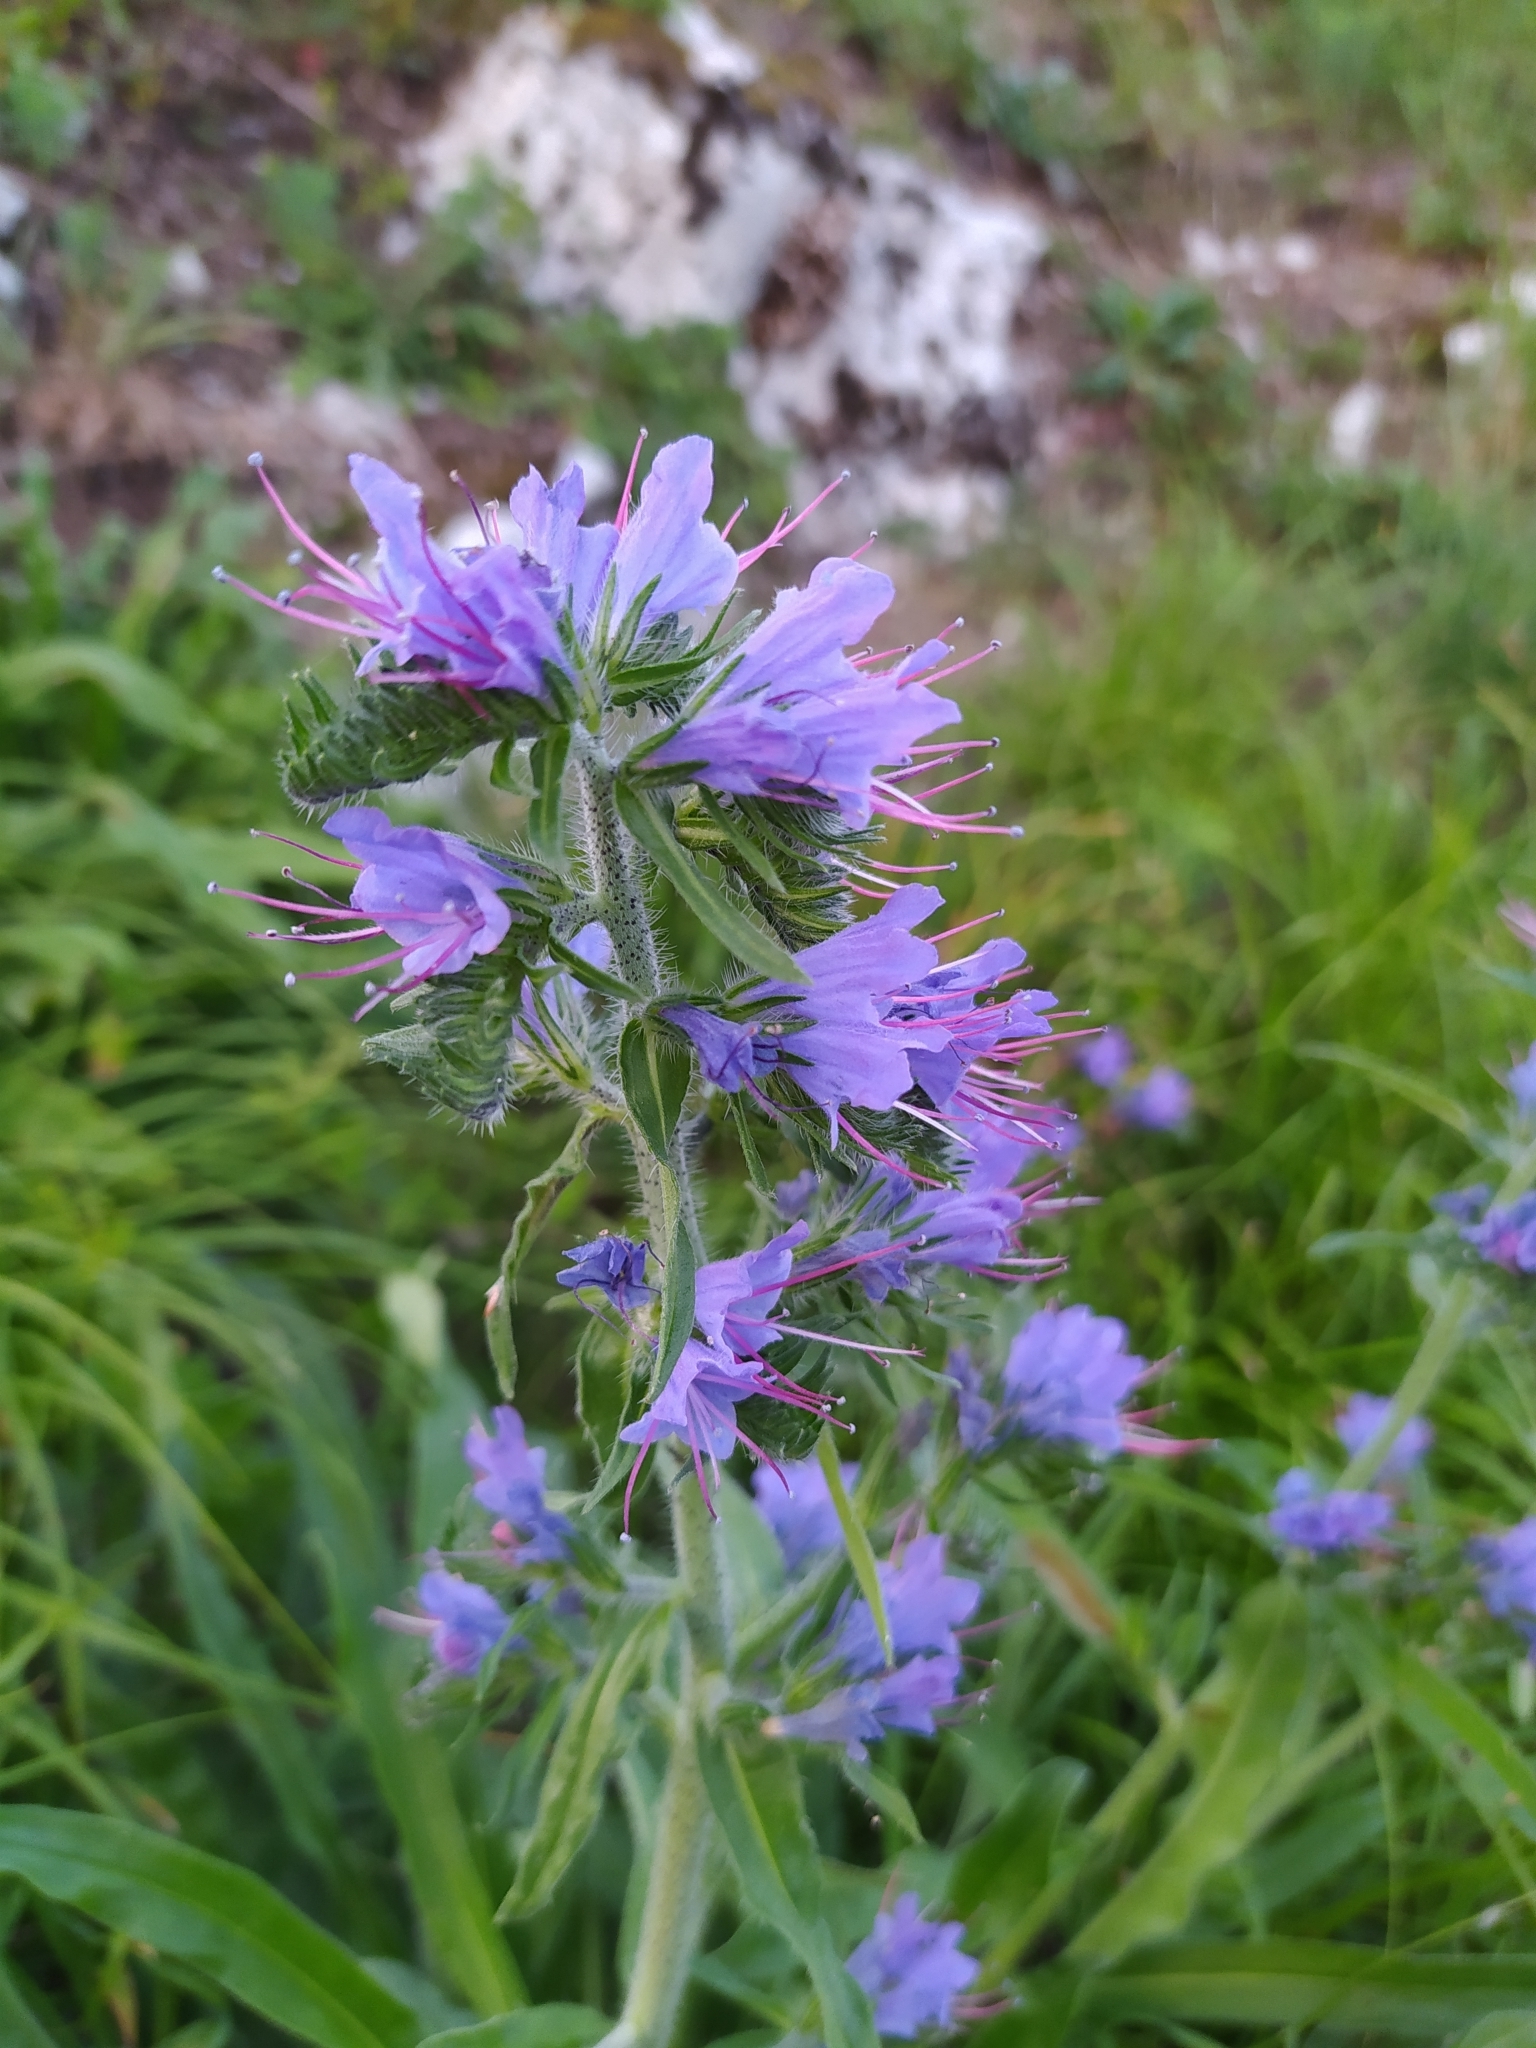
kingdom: Plantae
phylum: Tracheophyta
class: Magnoliopsida
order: Boraginales
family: Boraginaceae
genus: Echium
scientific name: Echium vulgare
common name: Common viper's bugloss
